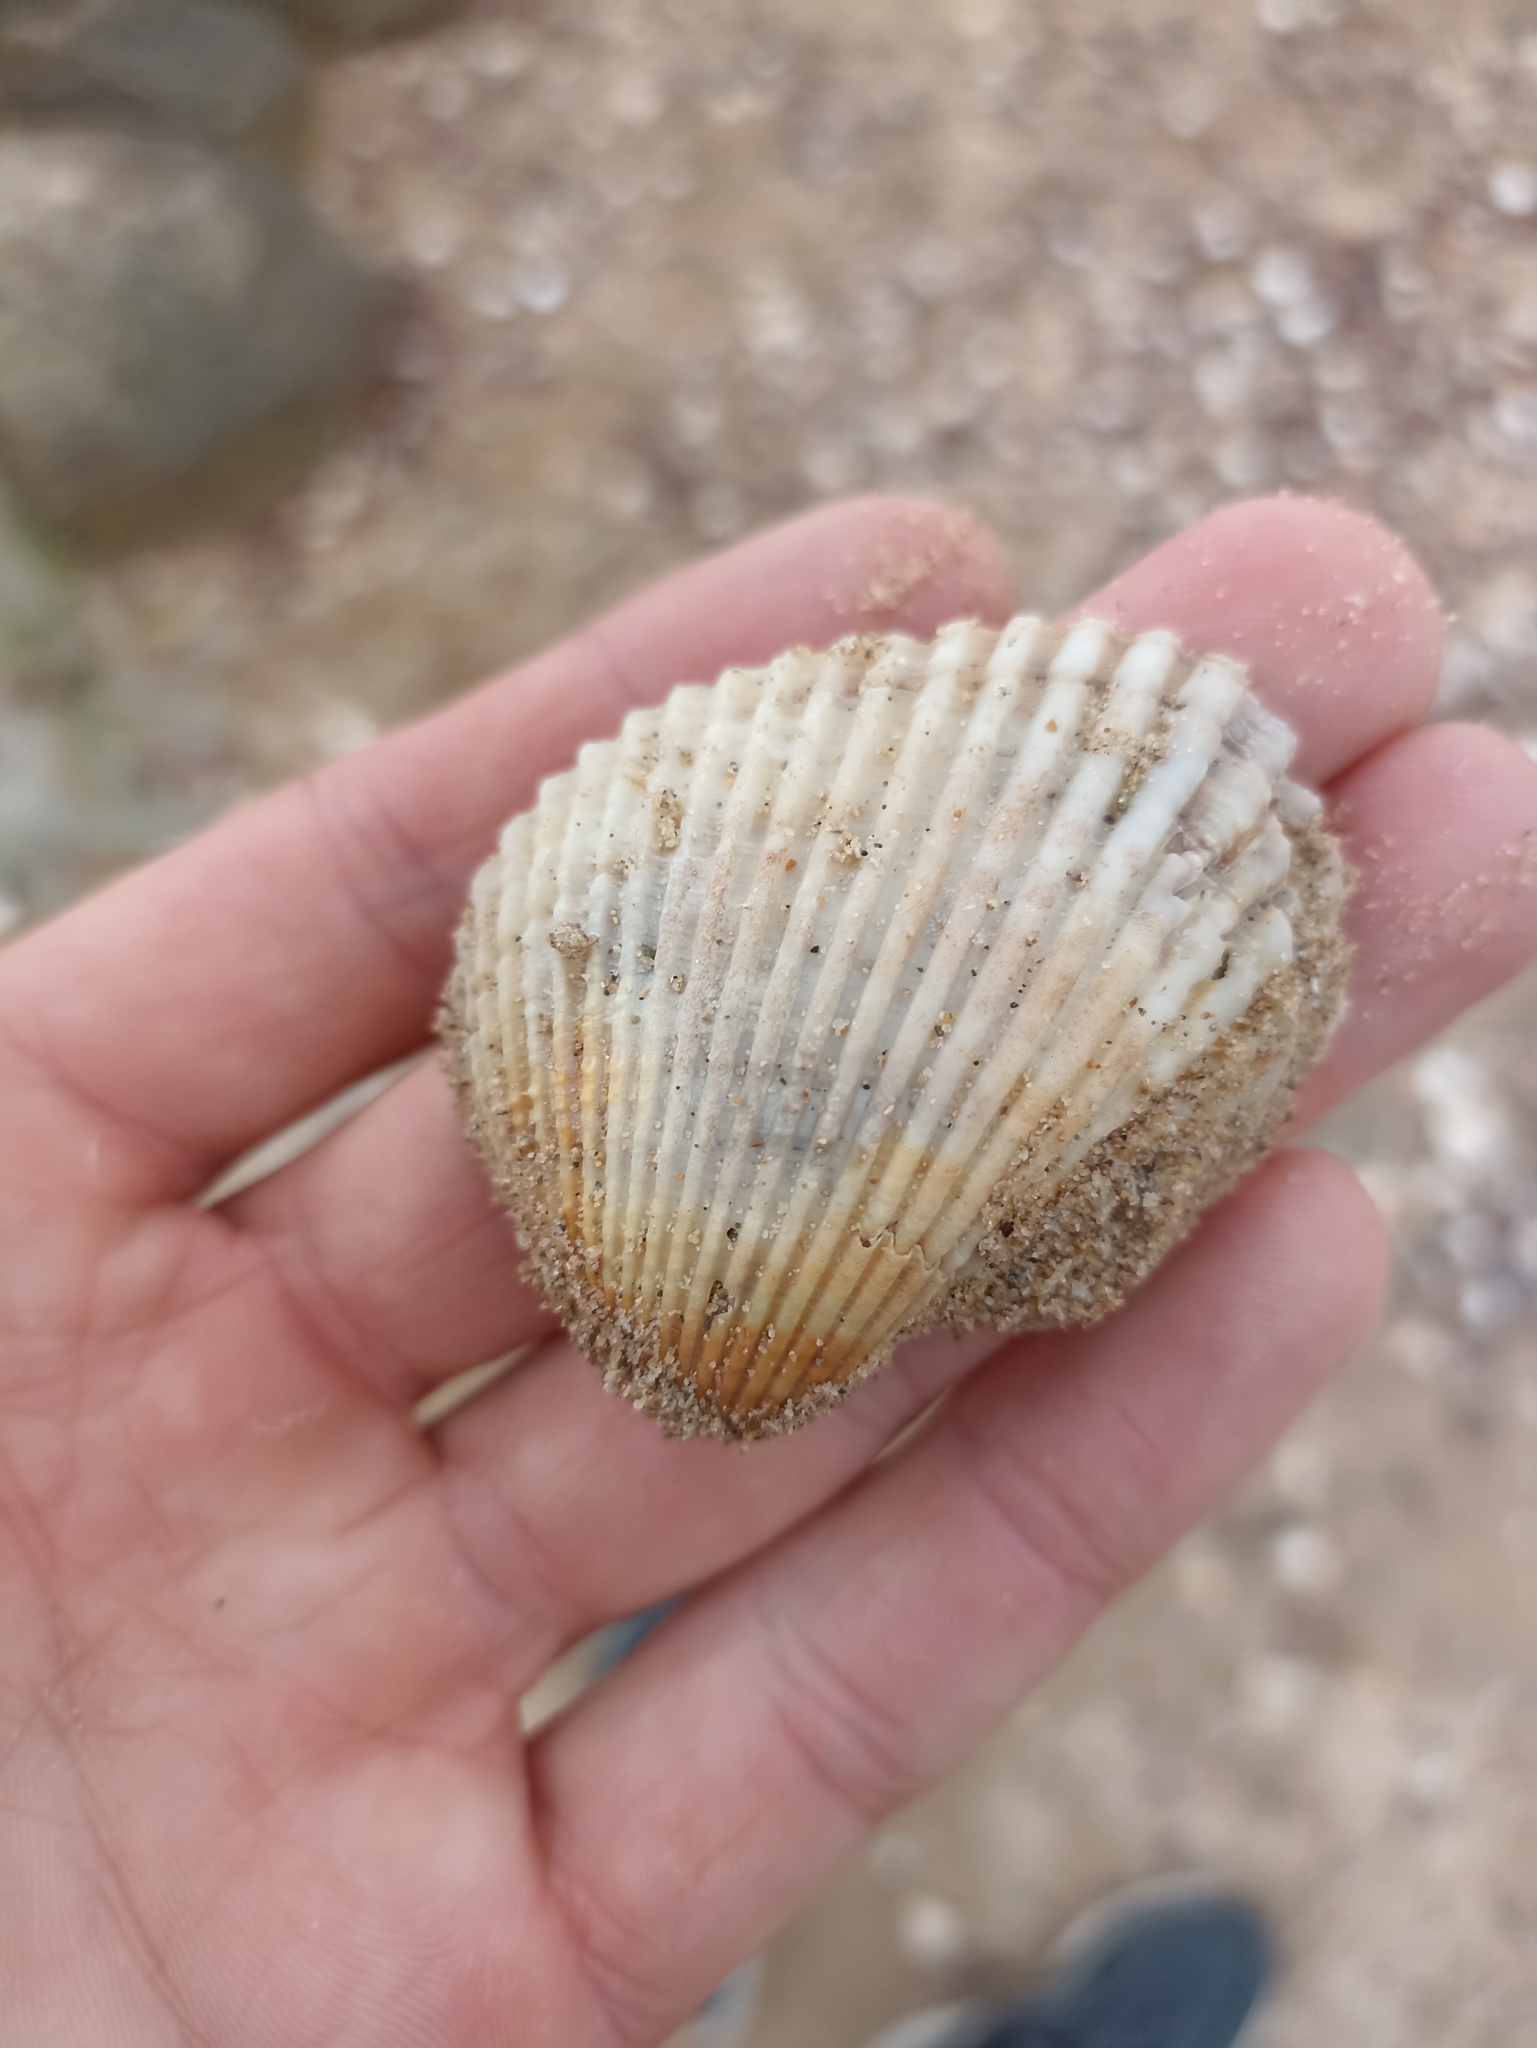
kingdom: Animalia
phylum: Mollusca
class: Bivalvia
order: Arcida
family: Arcidae
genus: Anadara
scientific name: Anadara trapezia
